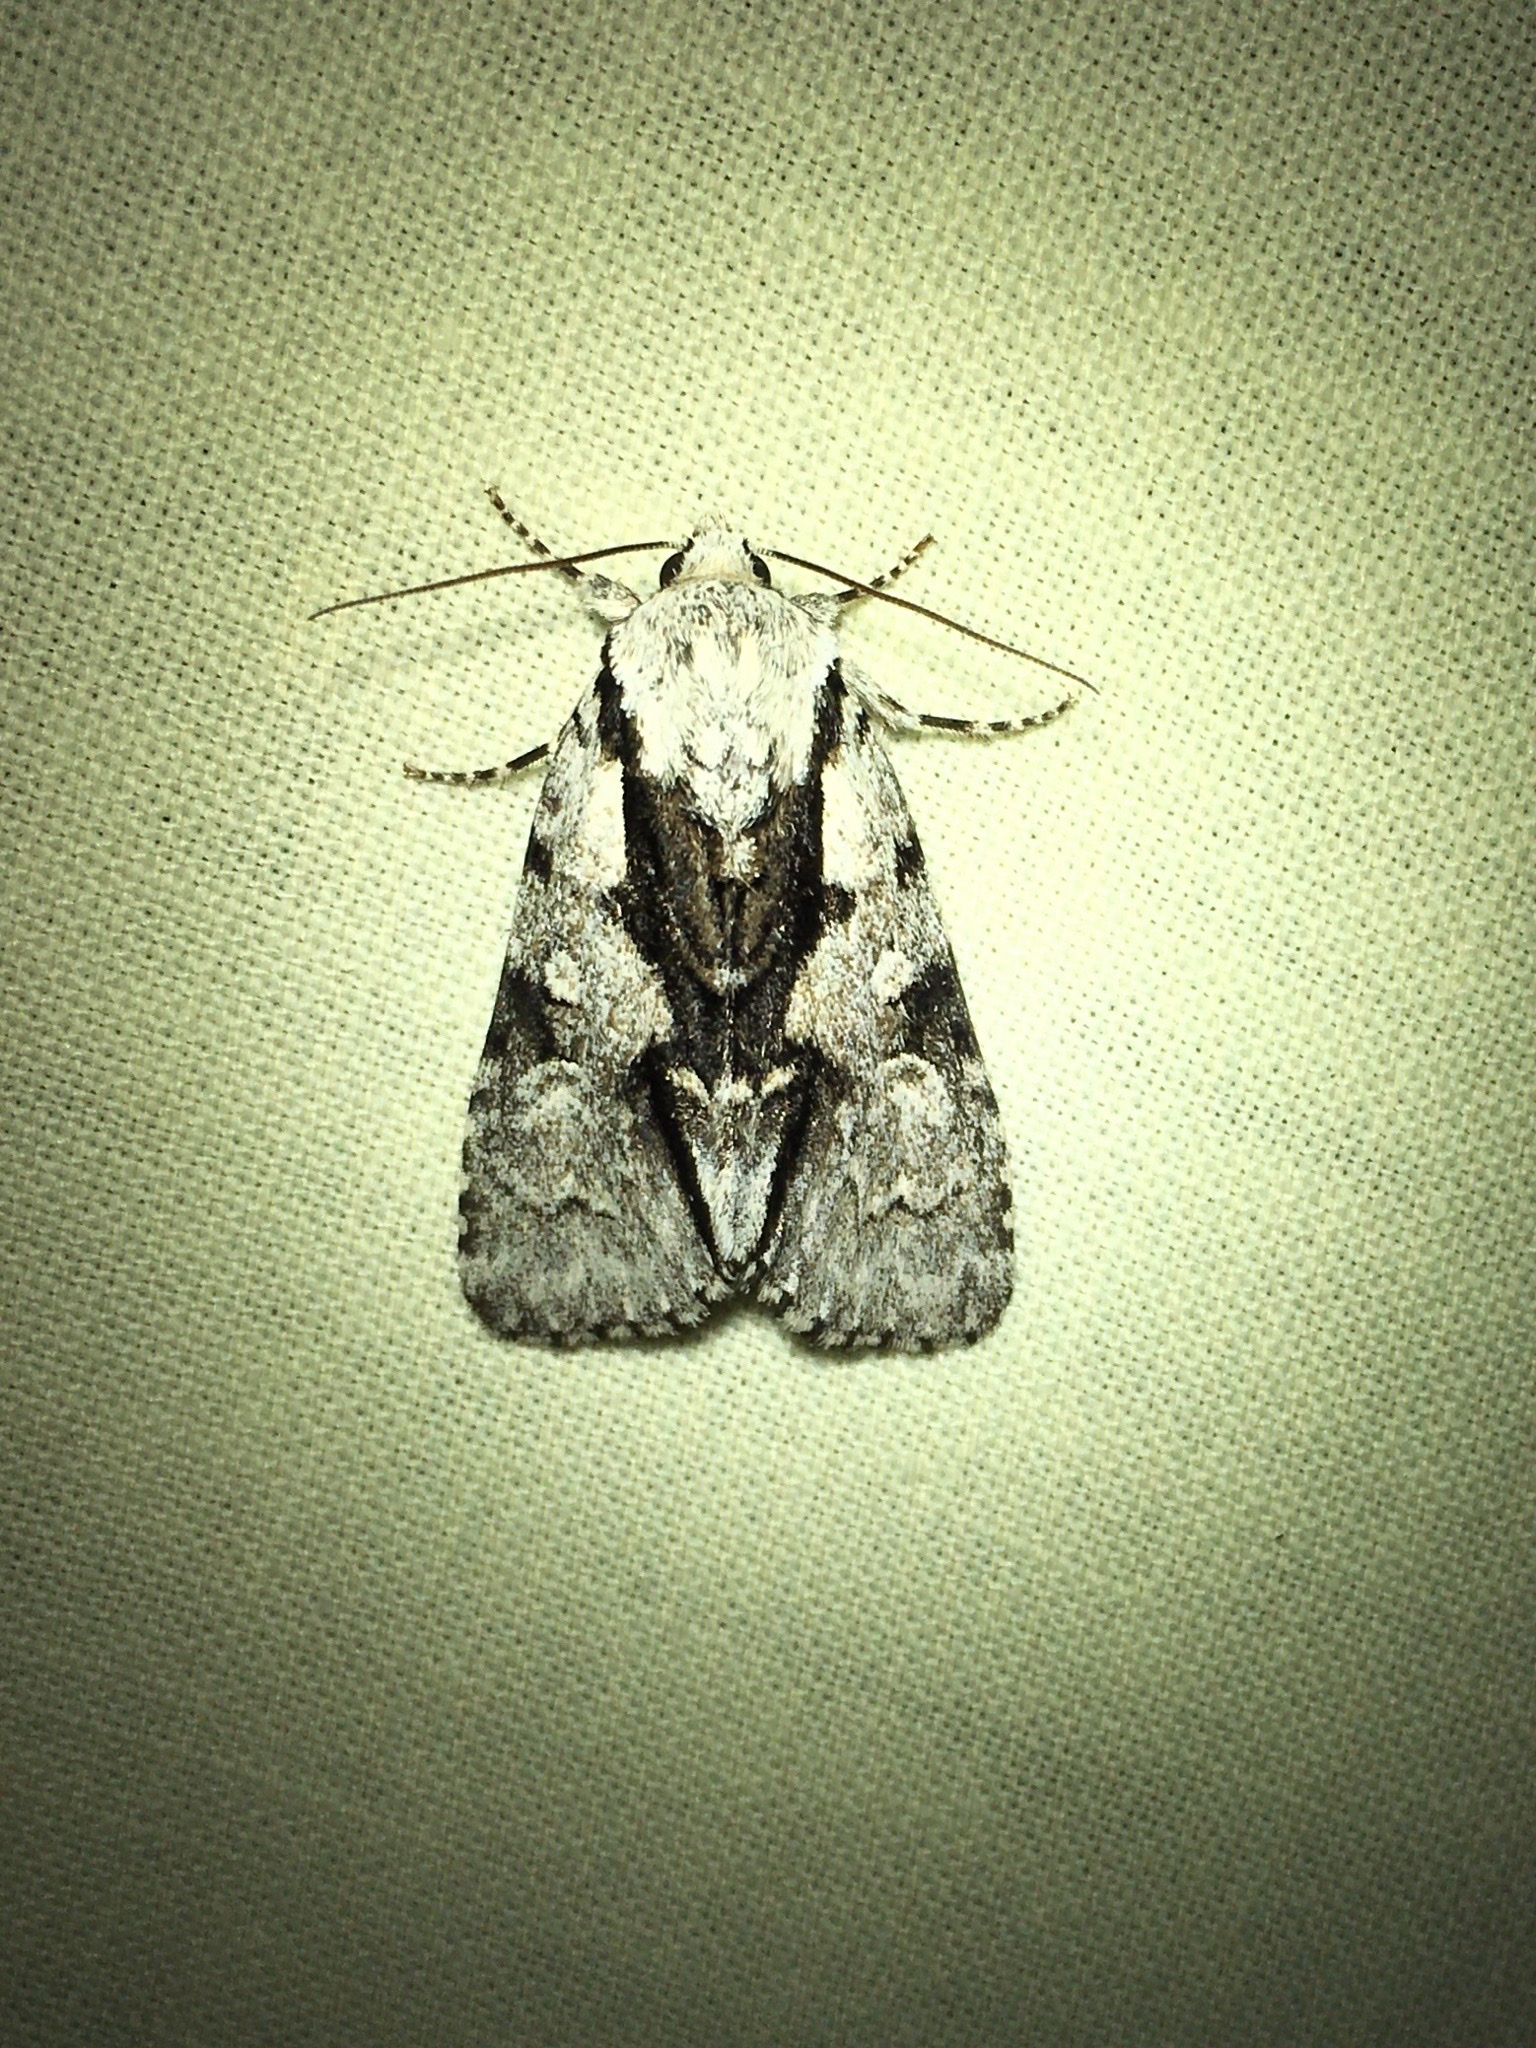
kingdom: Animalia
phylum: Arthropoda
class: Insecta
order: Lepidoptera
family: Noctuidae
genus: Acronicta
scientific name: Acronicta funeralis
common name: Funerary dagger
